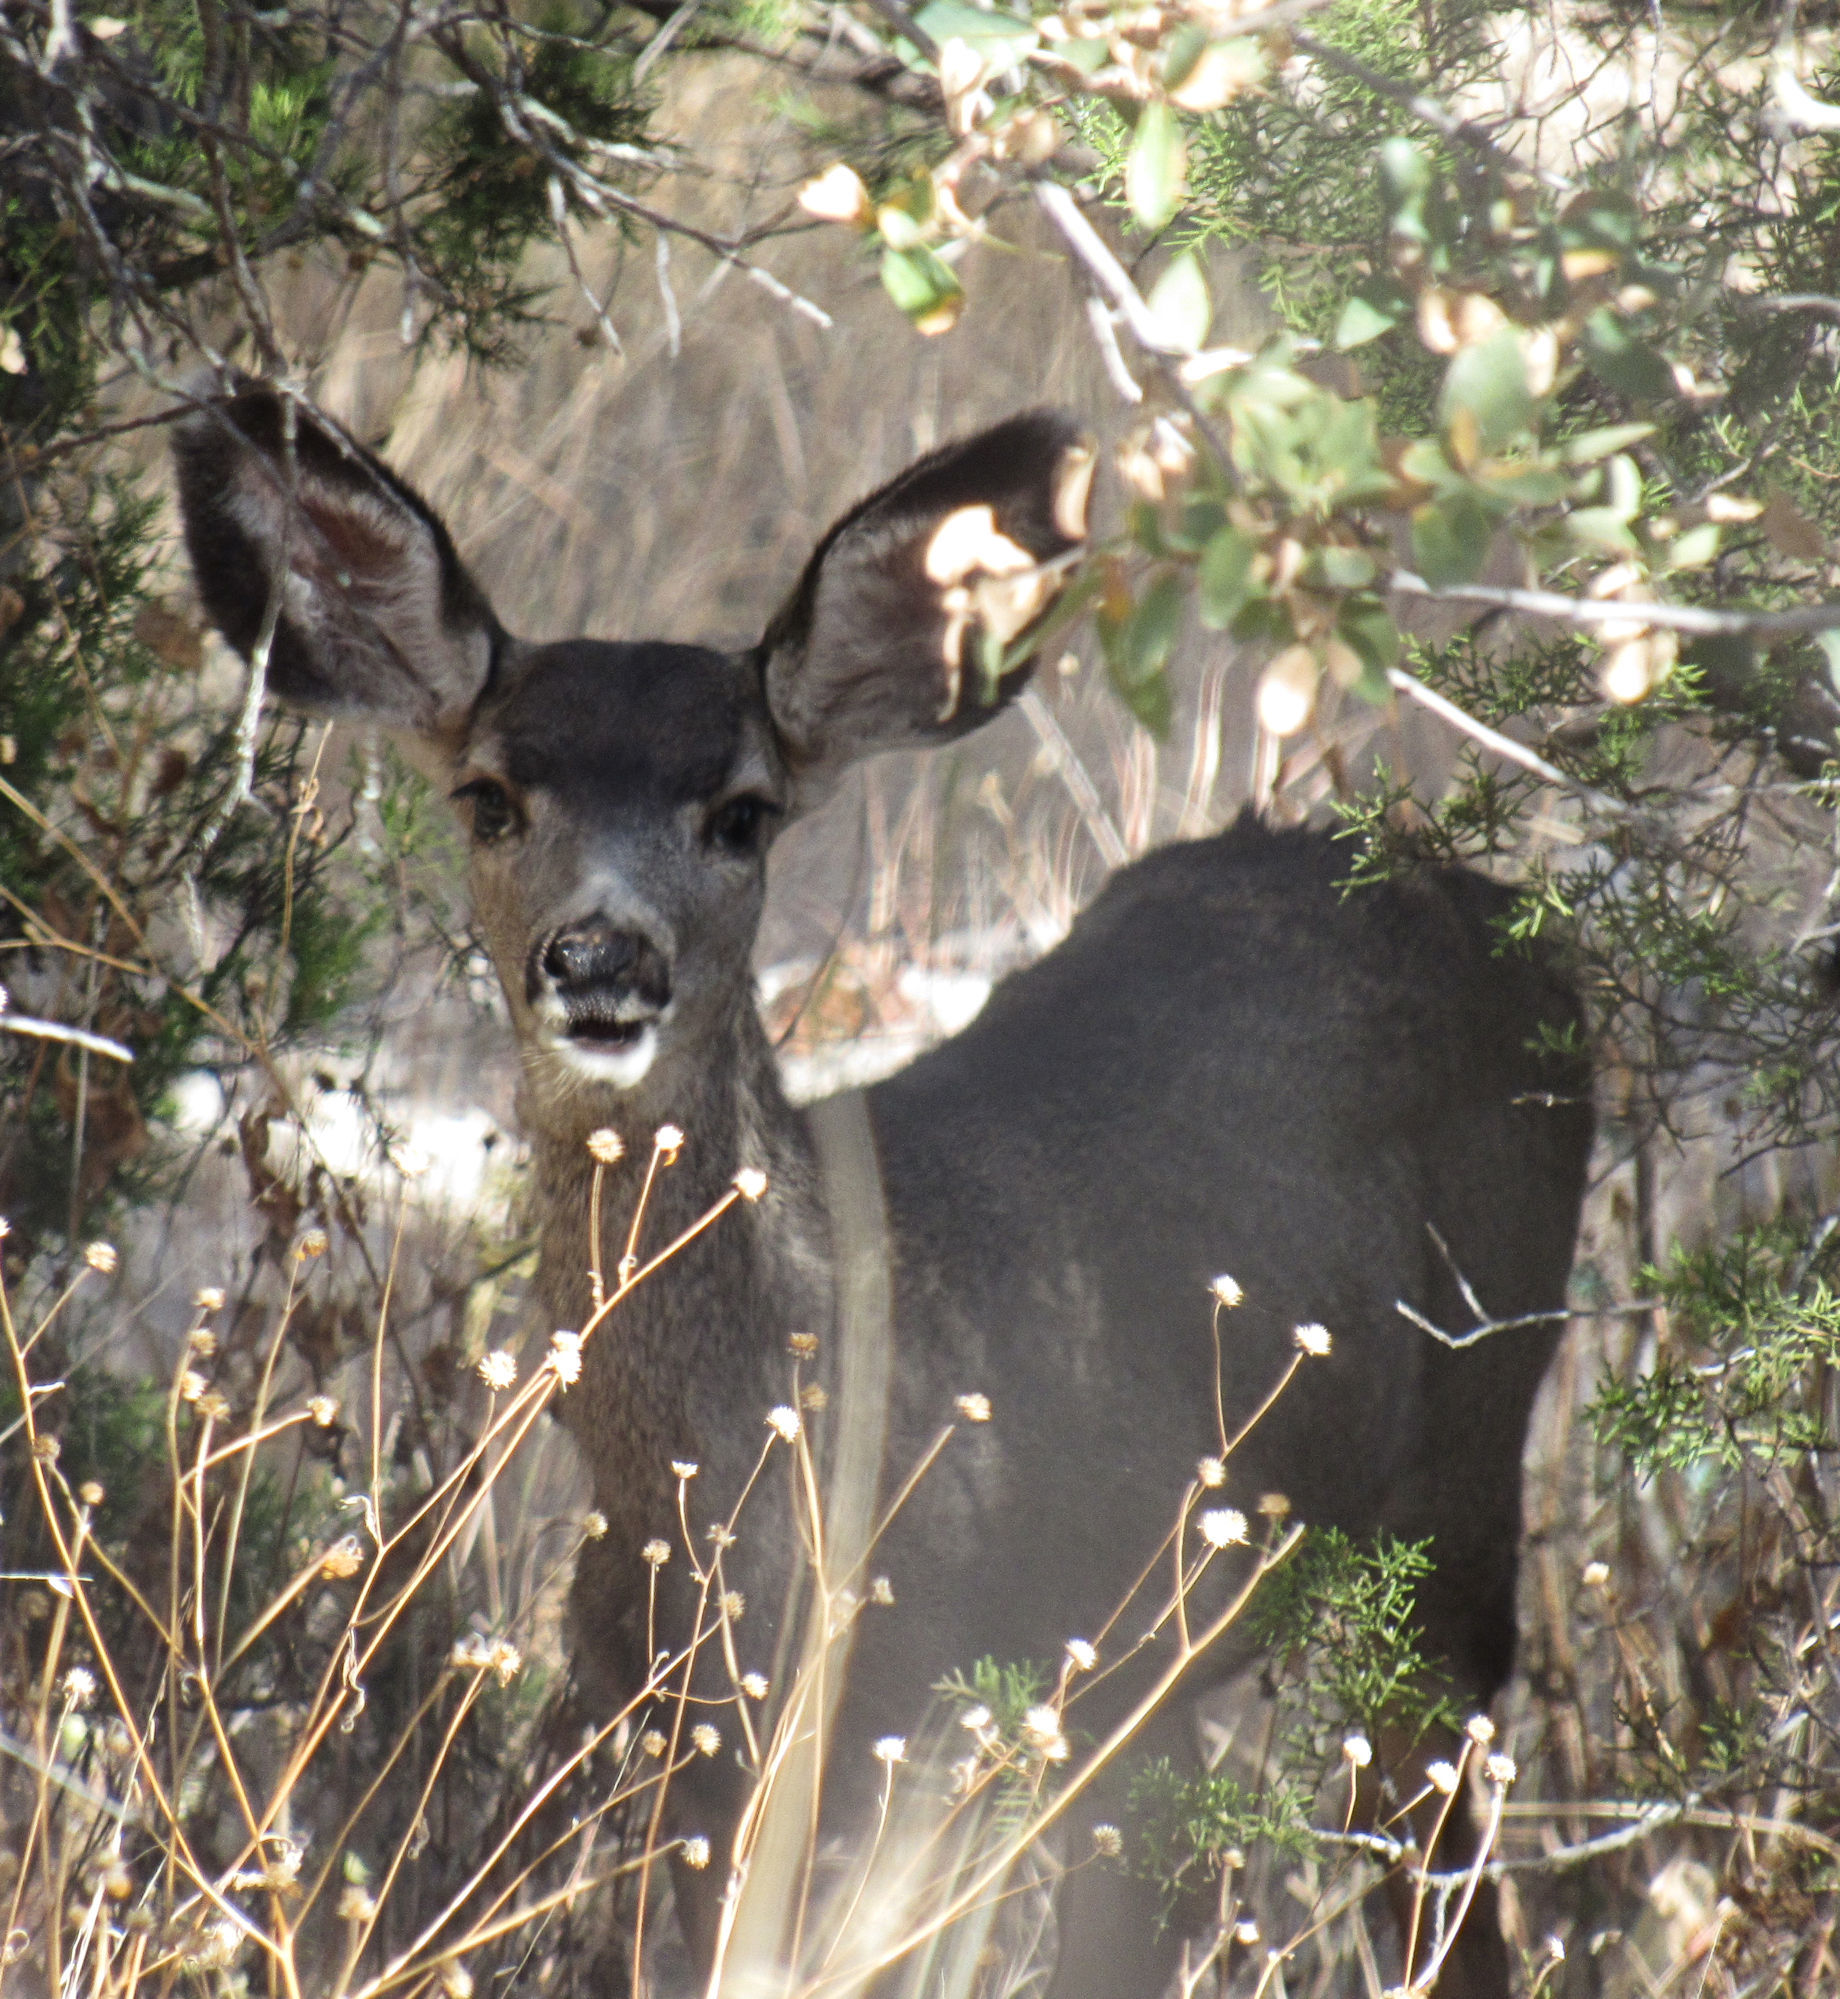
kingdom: Animalia
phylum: Chordata
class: Mammalia
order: Artiodactyla
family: Cervidae
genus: Odocoileus
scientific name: Odocoileus hemionus
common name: Mule deer
